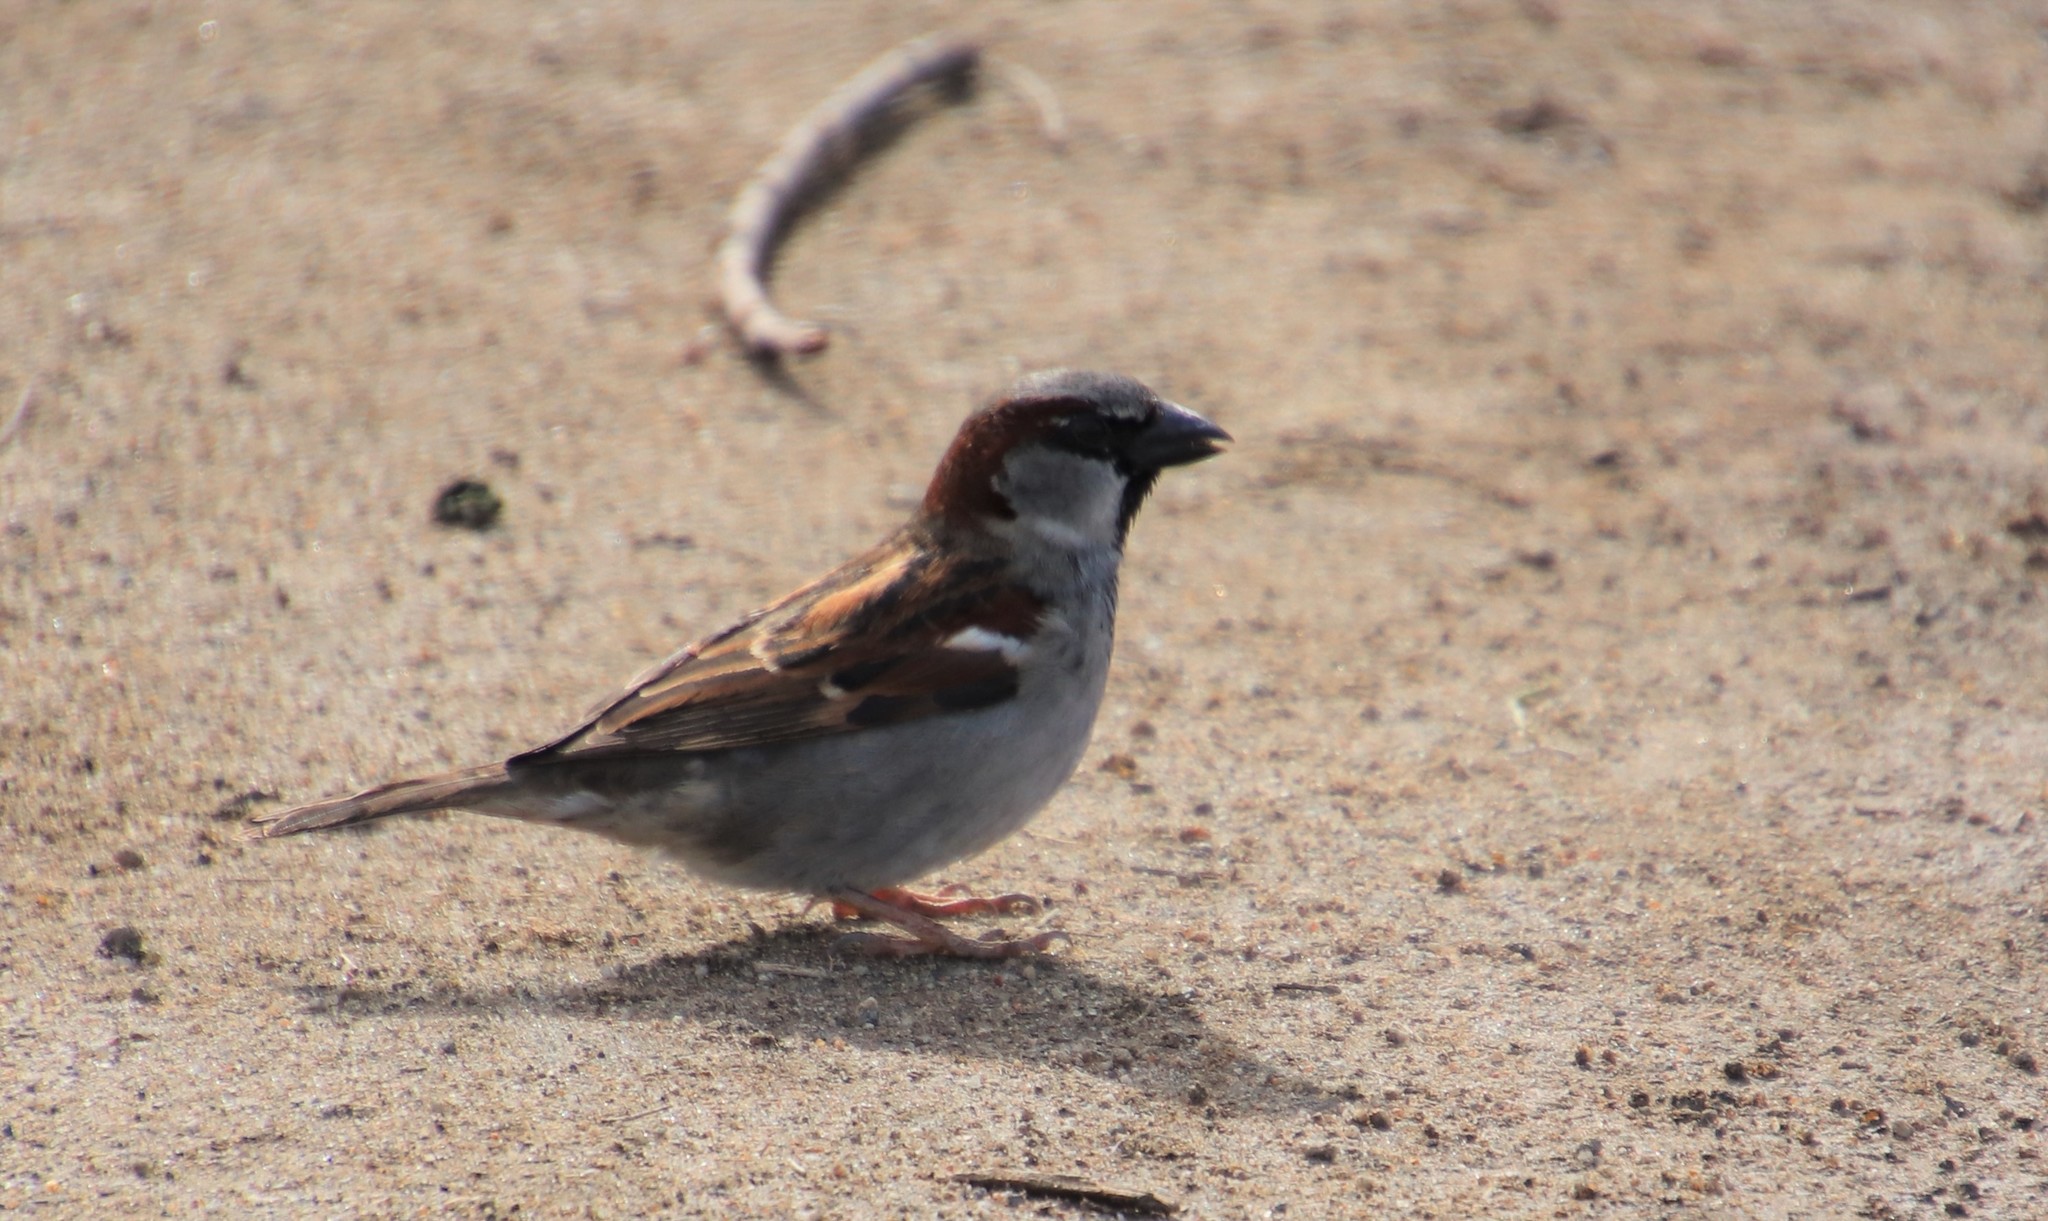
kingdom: Animalia
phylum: Chordata
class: Aves
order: Passeriformes
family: Passeridae
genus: Passer
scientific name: Passer domesticus
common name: House sparrow
